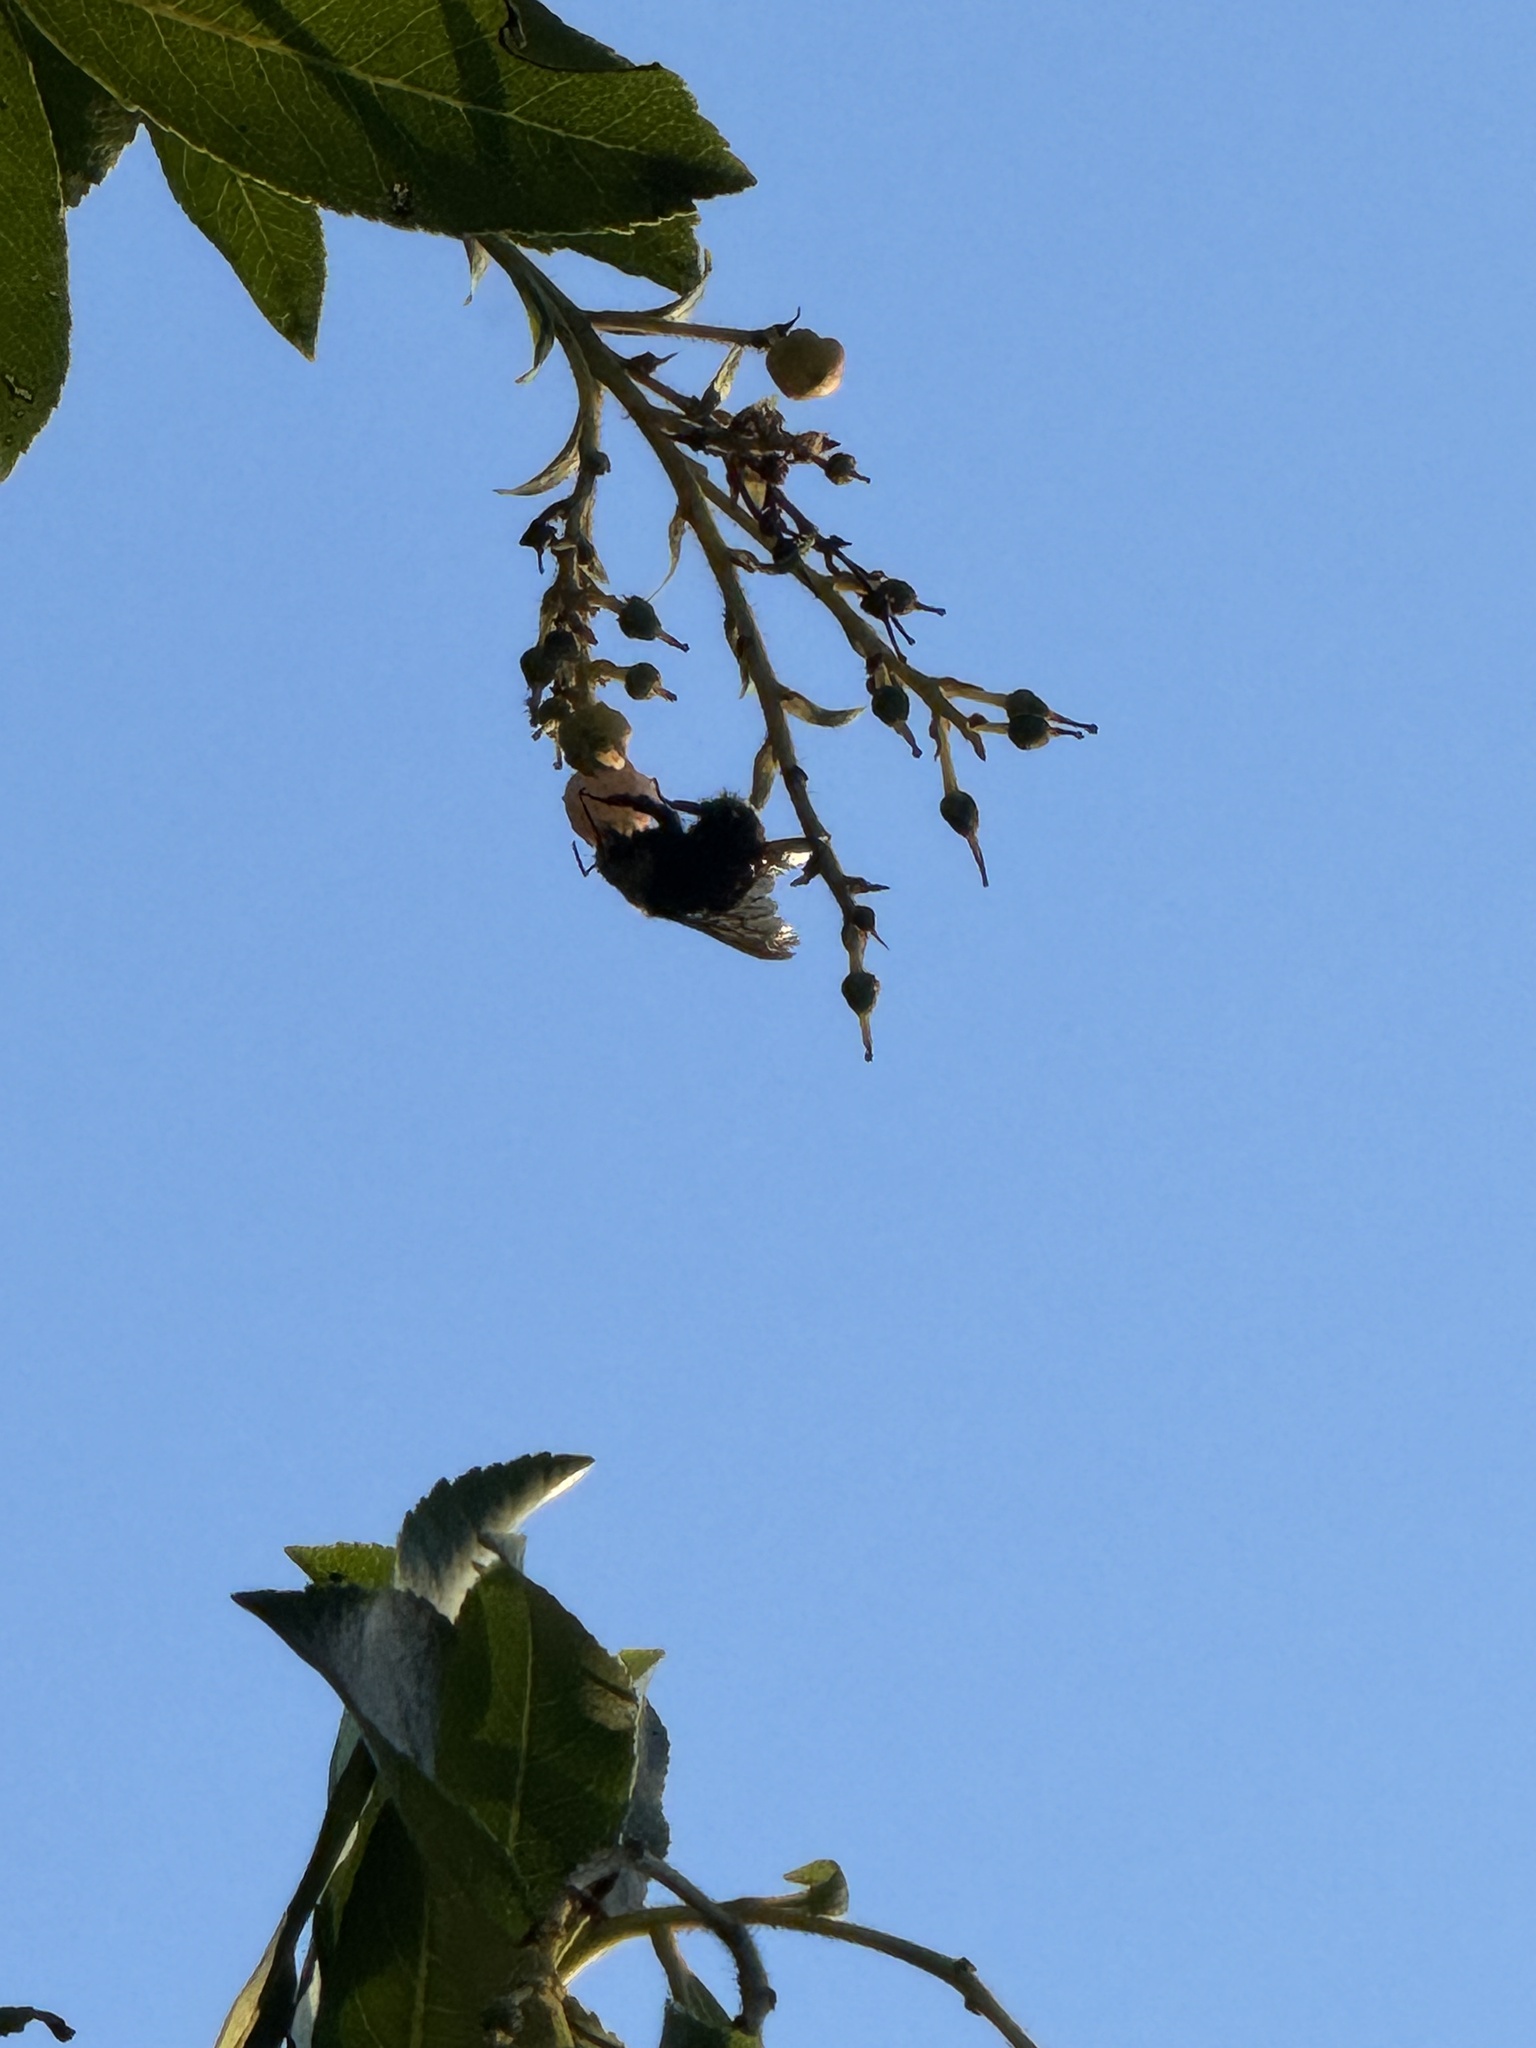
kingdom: Animalia
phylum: Arthropoda
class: Insecta
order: Hymenoptera
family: Apidae
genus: Bombus
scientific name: Bombus vosnesenskii
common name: Vosnesensky bumble bee
